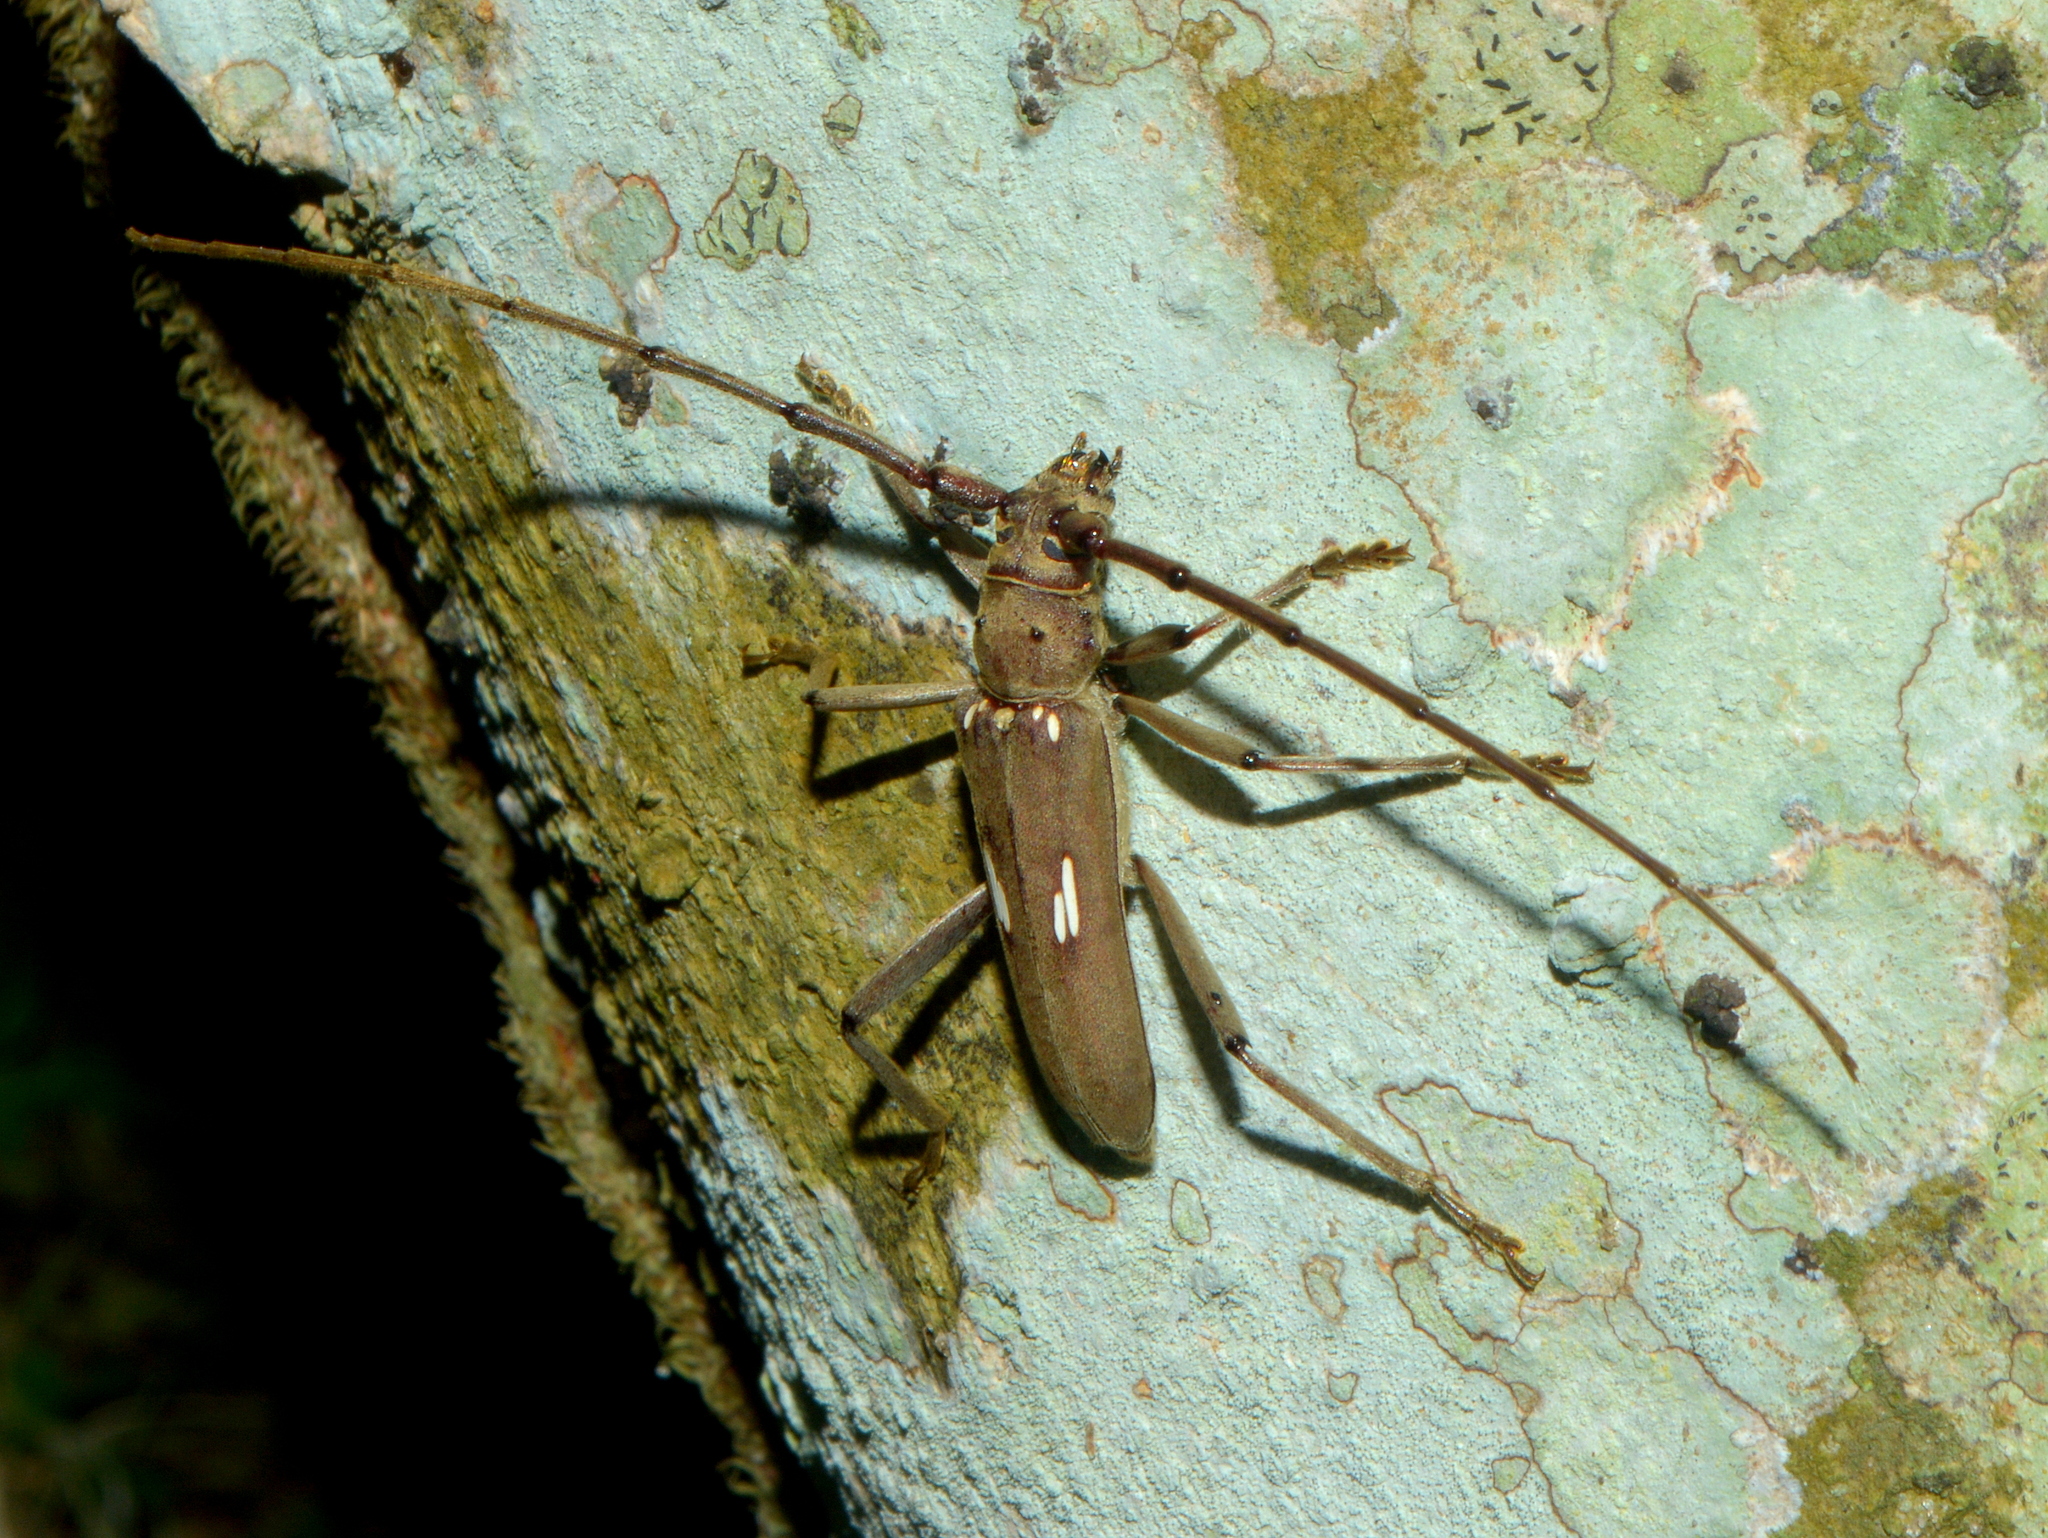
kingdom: Animalia
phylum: Arthropoda
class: Insecta
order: Coleoptera
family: Cerambycidae
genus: Pantomallus
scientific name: Pantomallus morosus
